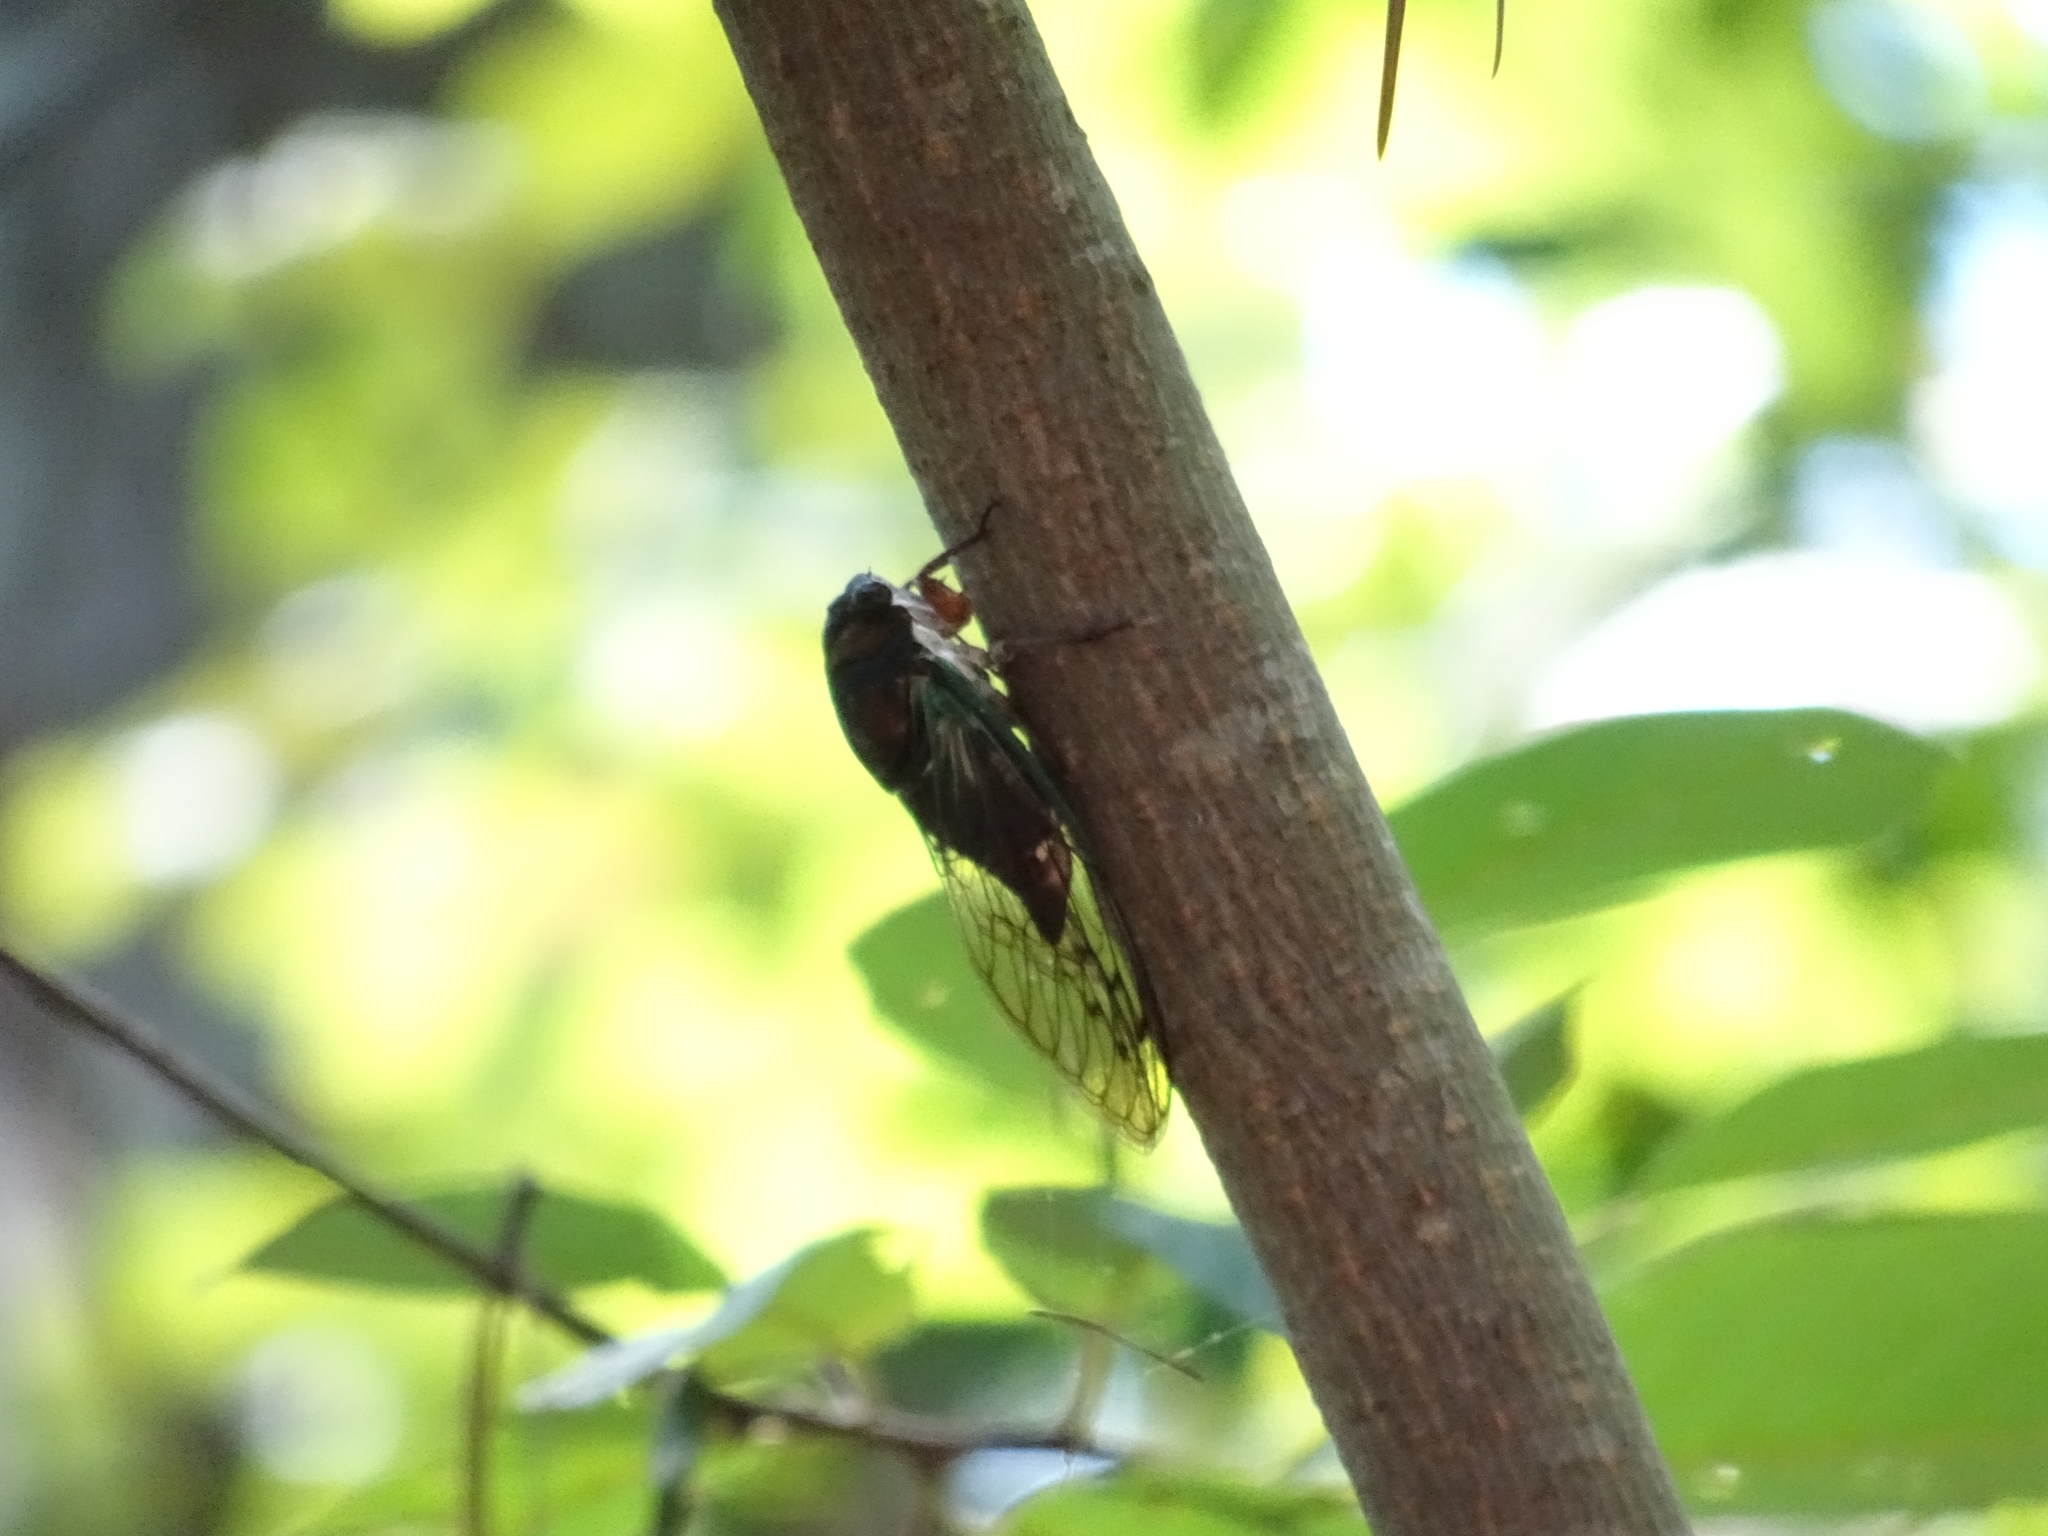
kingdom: Animalia
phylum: Arthropoda
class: Insecta
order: Hemiptera
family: Cicadidae
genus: Neotibicen
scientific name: Neotibicen lyricen
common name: Lyric cicada
